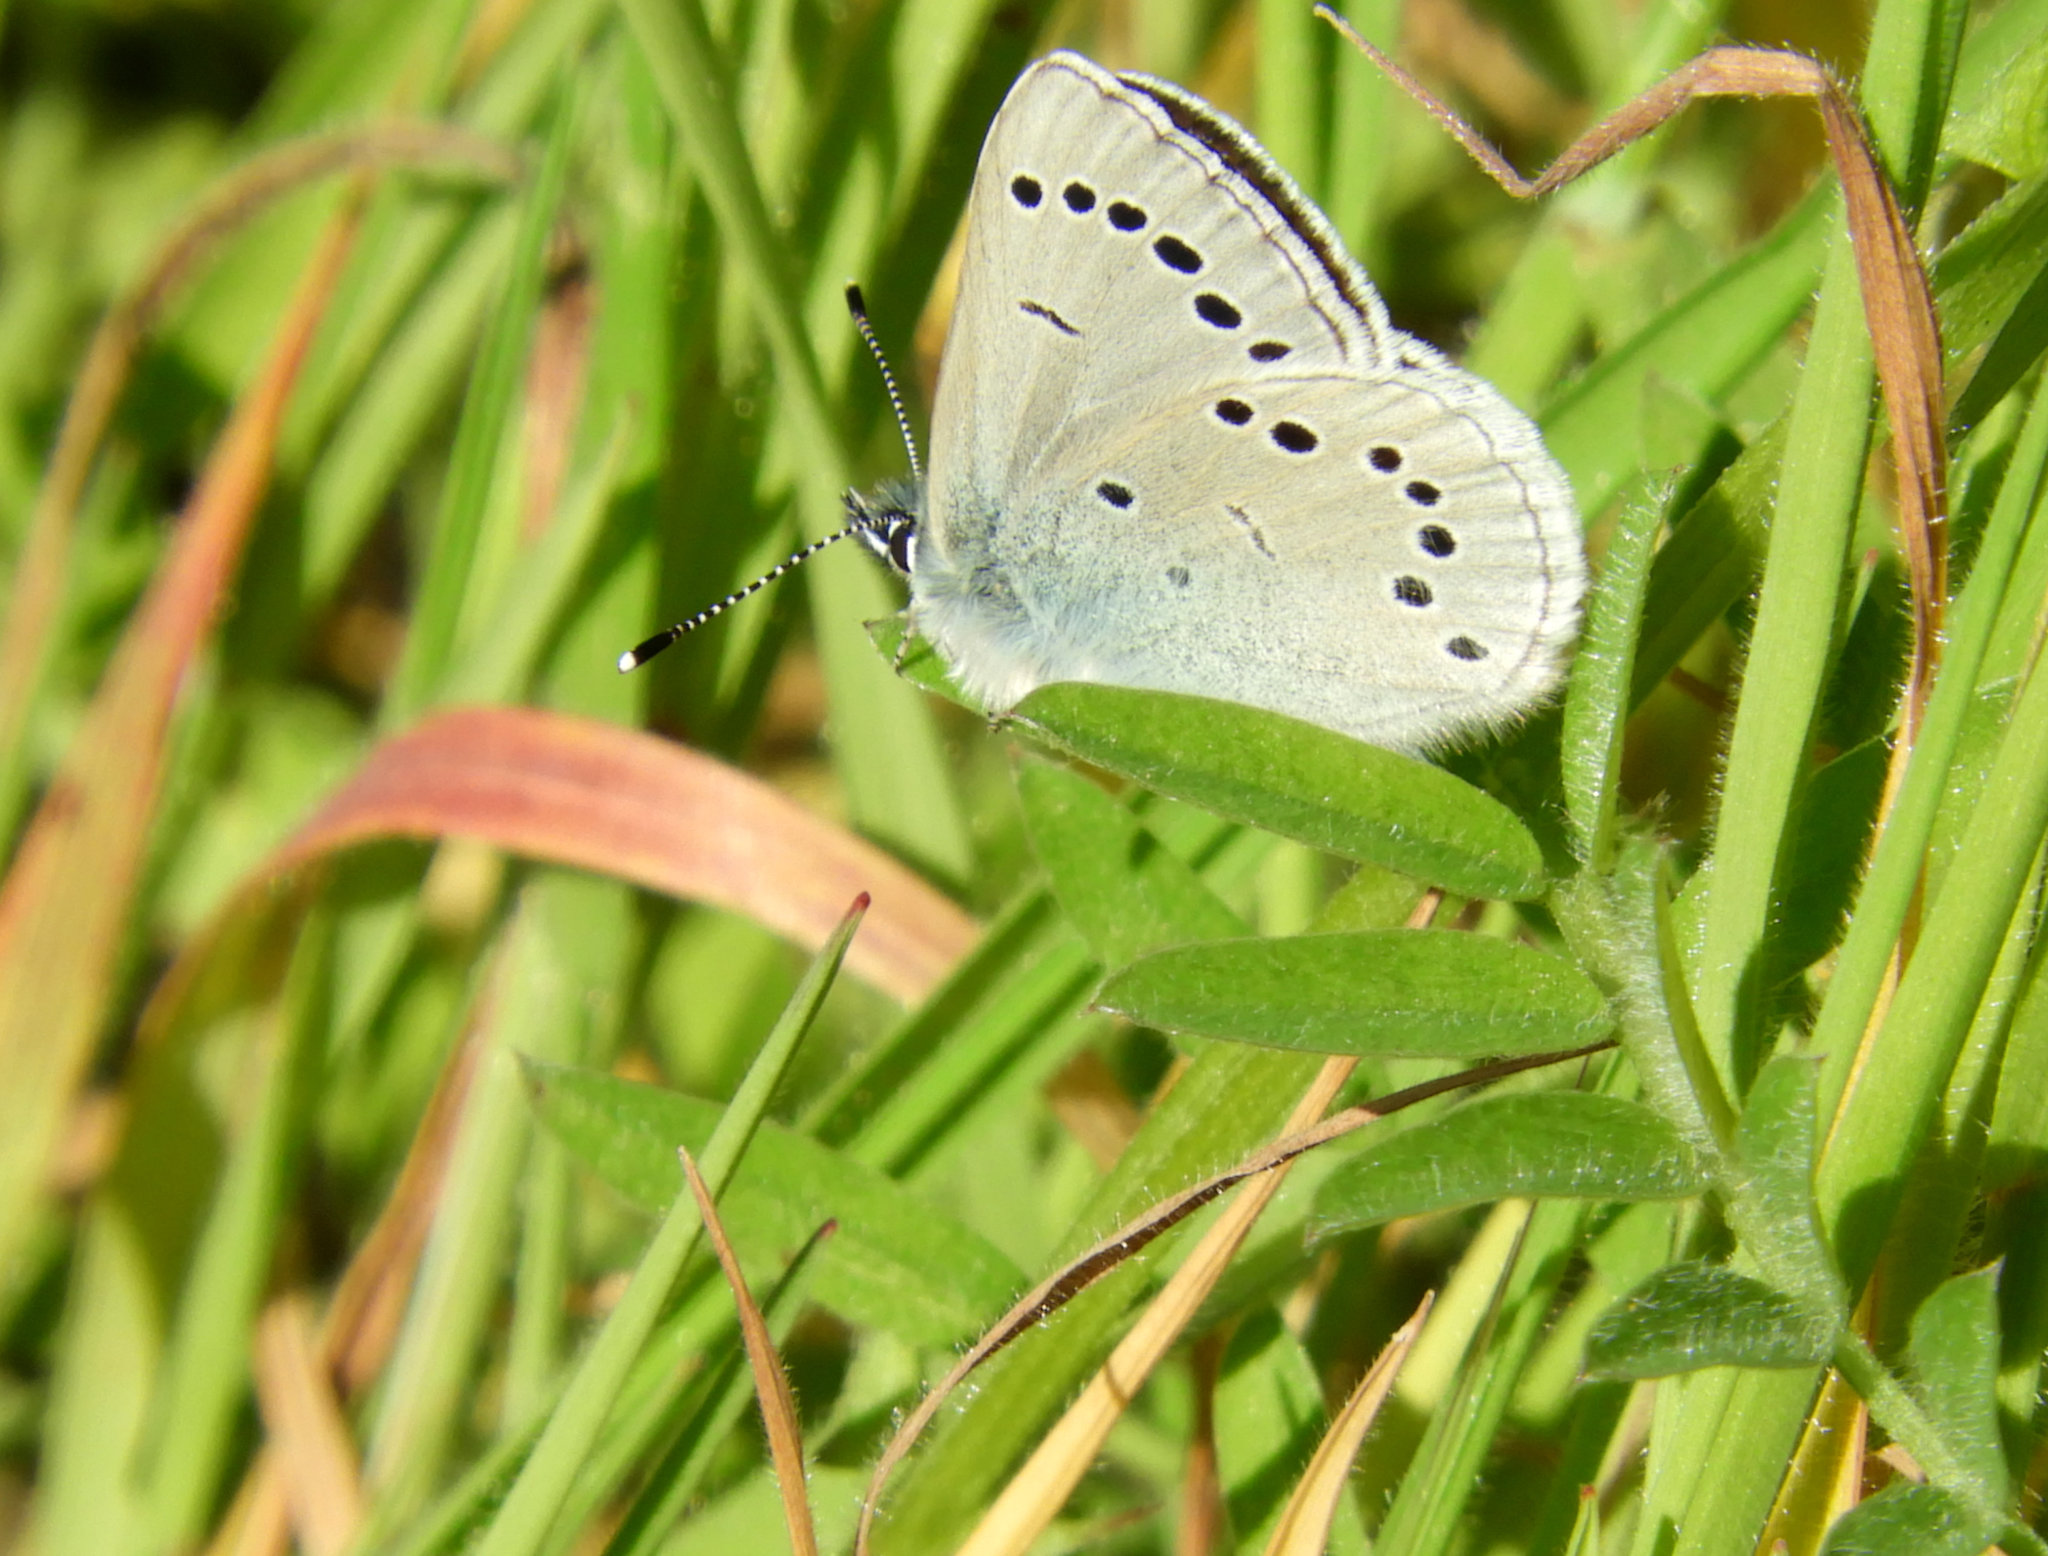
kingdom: Animalia
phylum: Arthropoda
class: Insecta
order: Lepidoptera
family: Lycaenidae
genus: Glaucopsyche
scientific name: Glaucopsyche lygdamus
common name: Silvery blue
